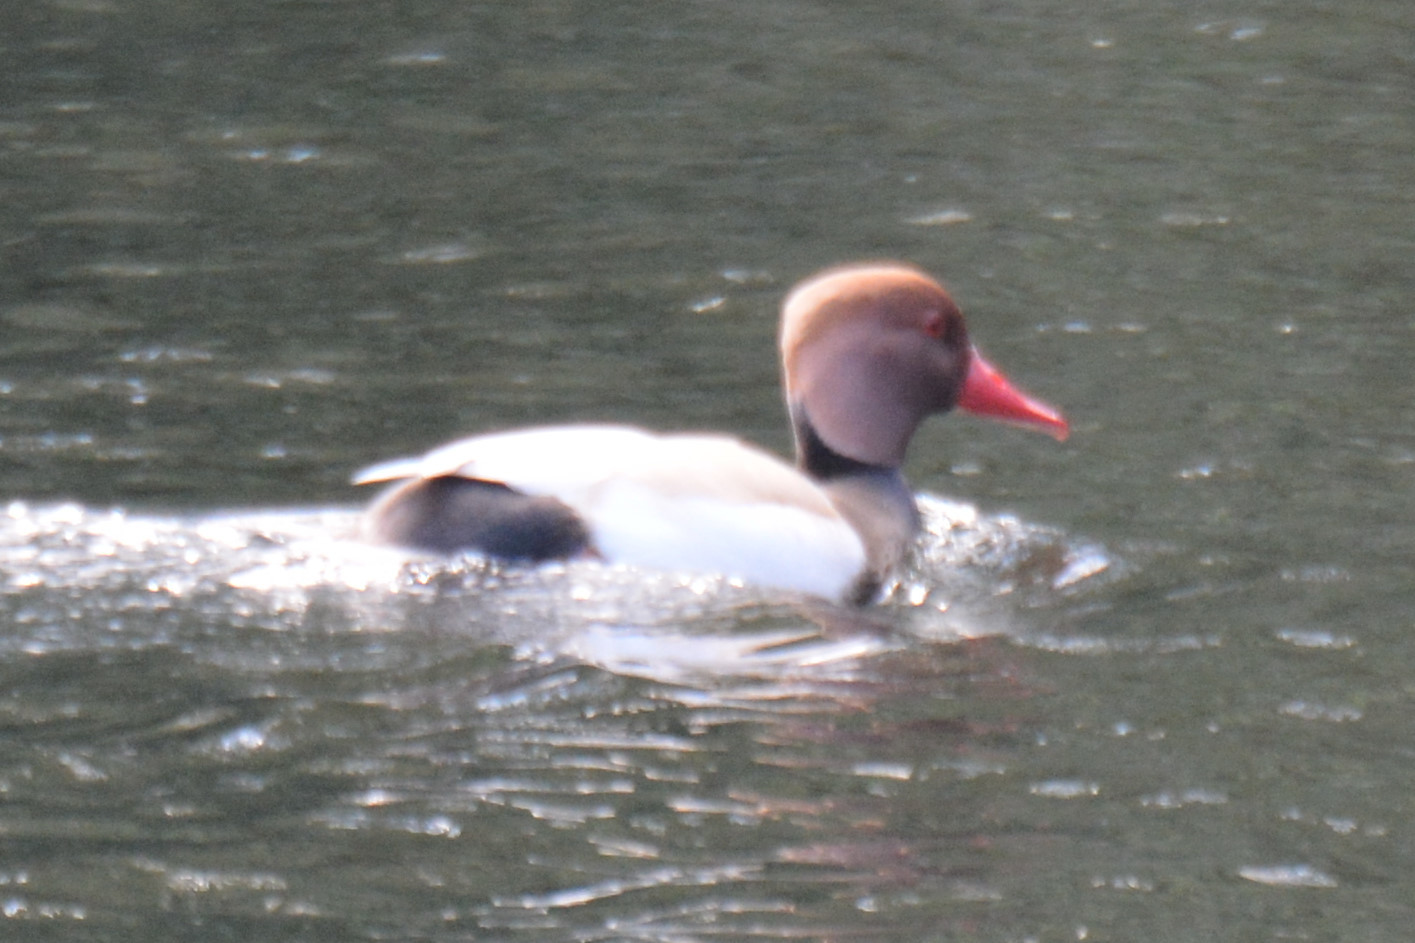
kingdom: Animalia
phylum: Chordata
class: Aves
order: Anseriformes
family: Anatidae
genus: Netta
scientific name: Netta rufina
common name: Red-crested pochard
